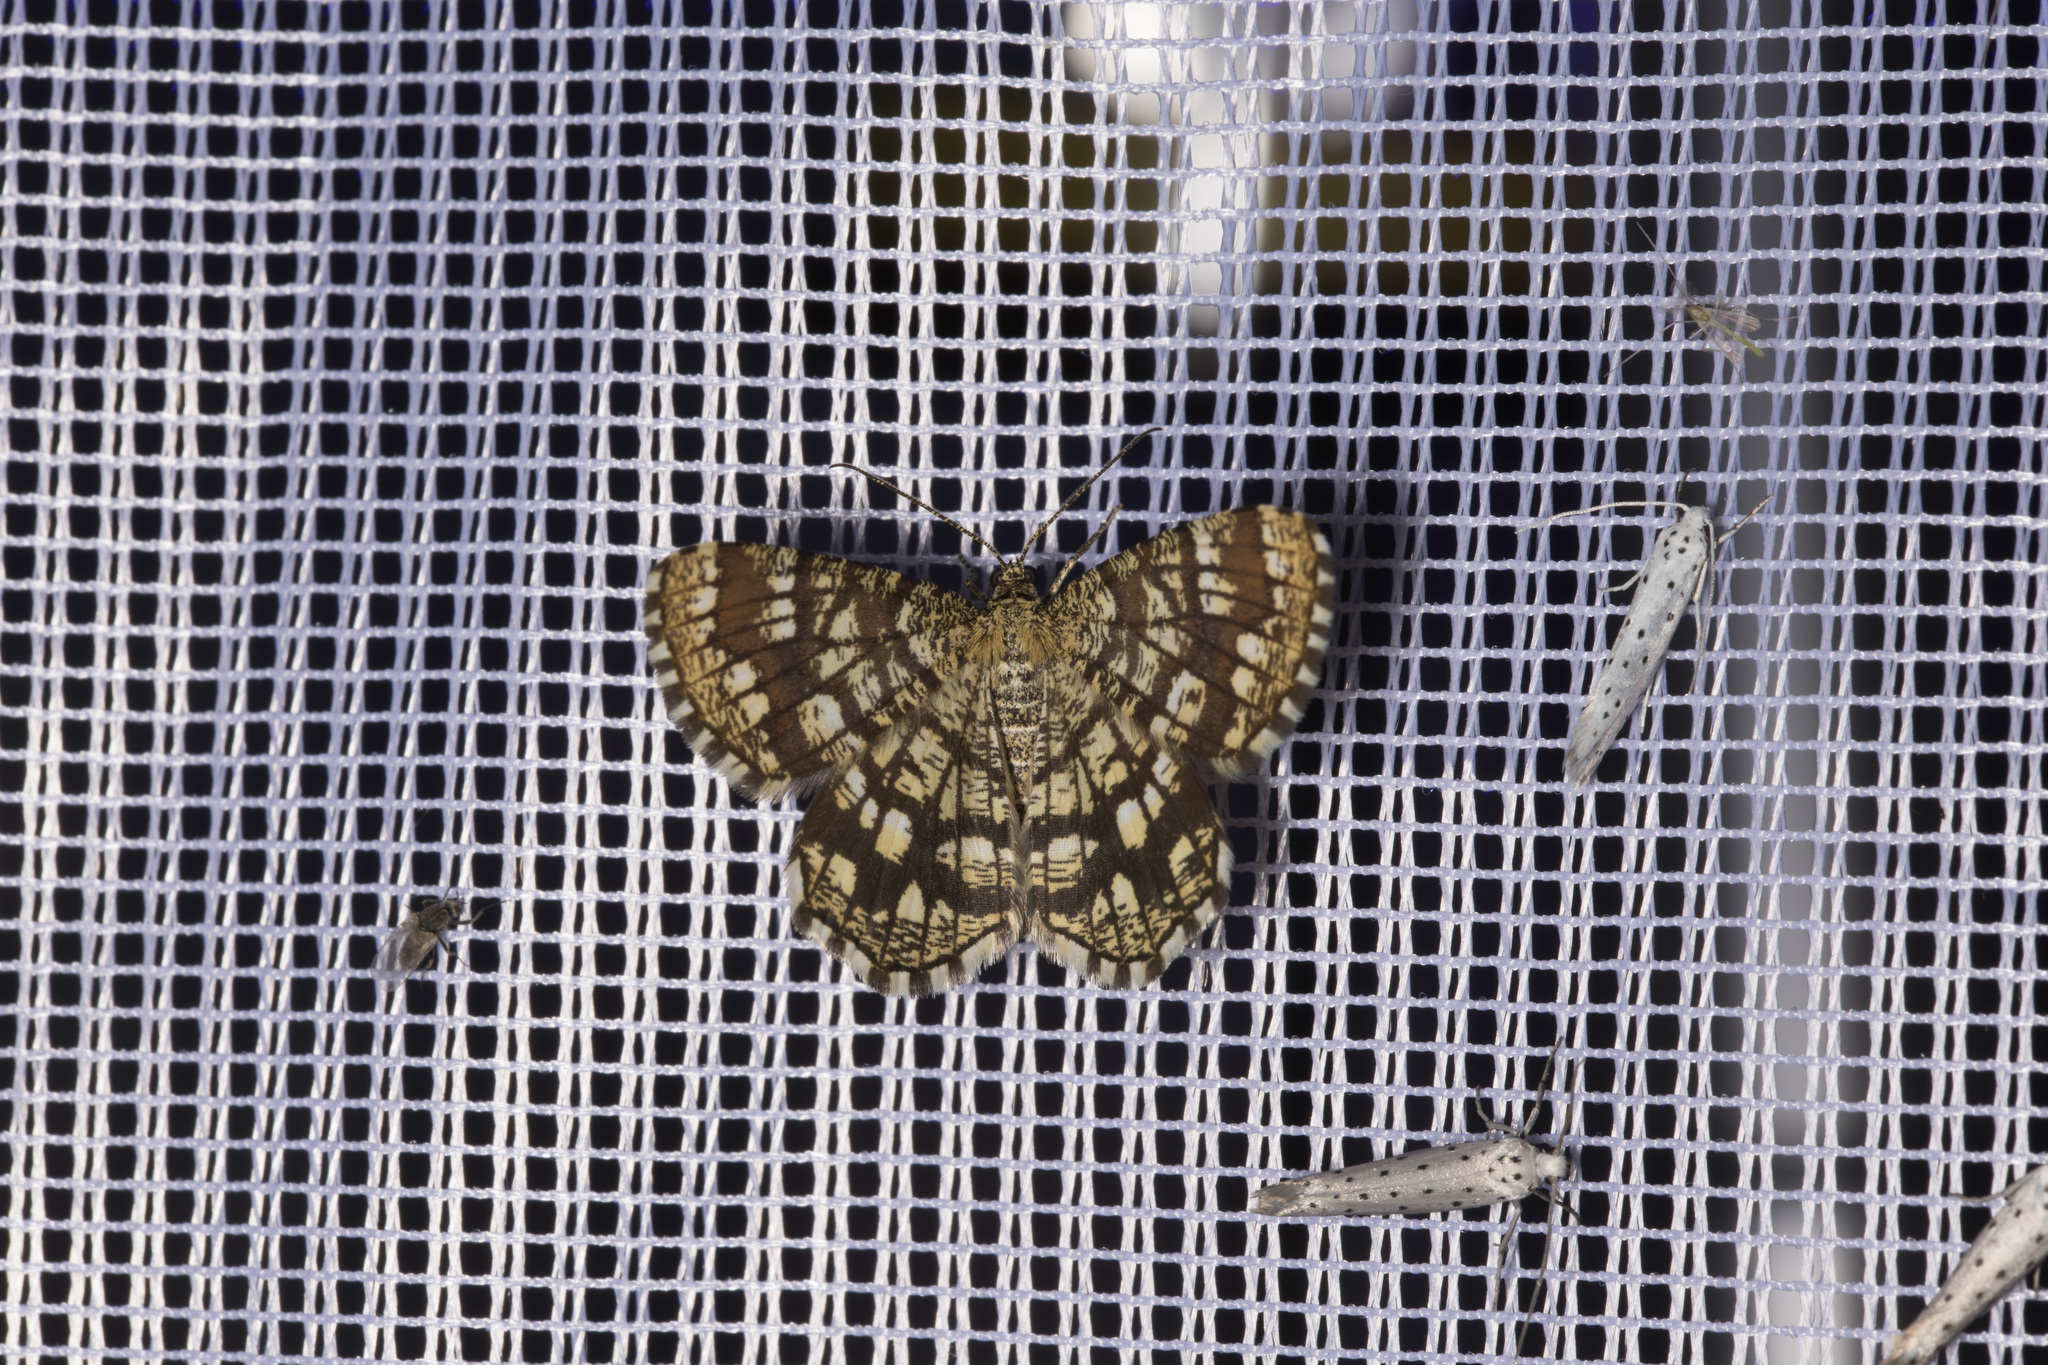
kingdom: Animalia
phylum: Arthropoda
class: Insecta
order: Lepidoptera
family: Geometridae
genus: Chiasmia
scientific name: Chiasmia clathrata
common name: Latticed heath
